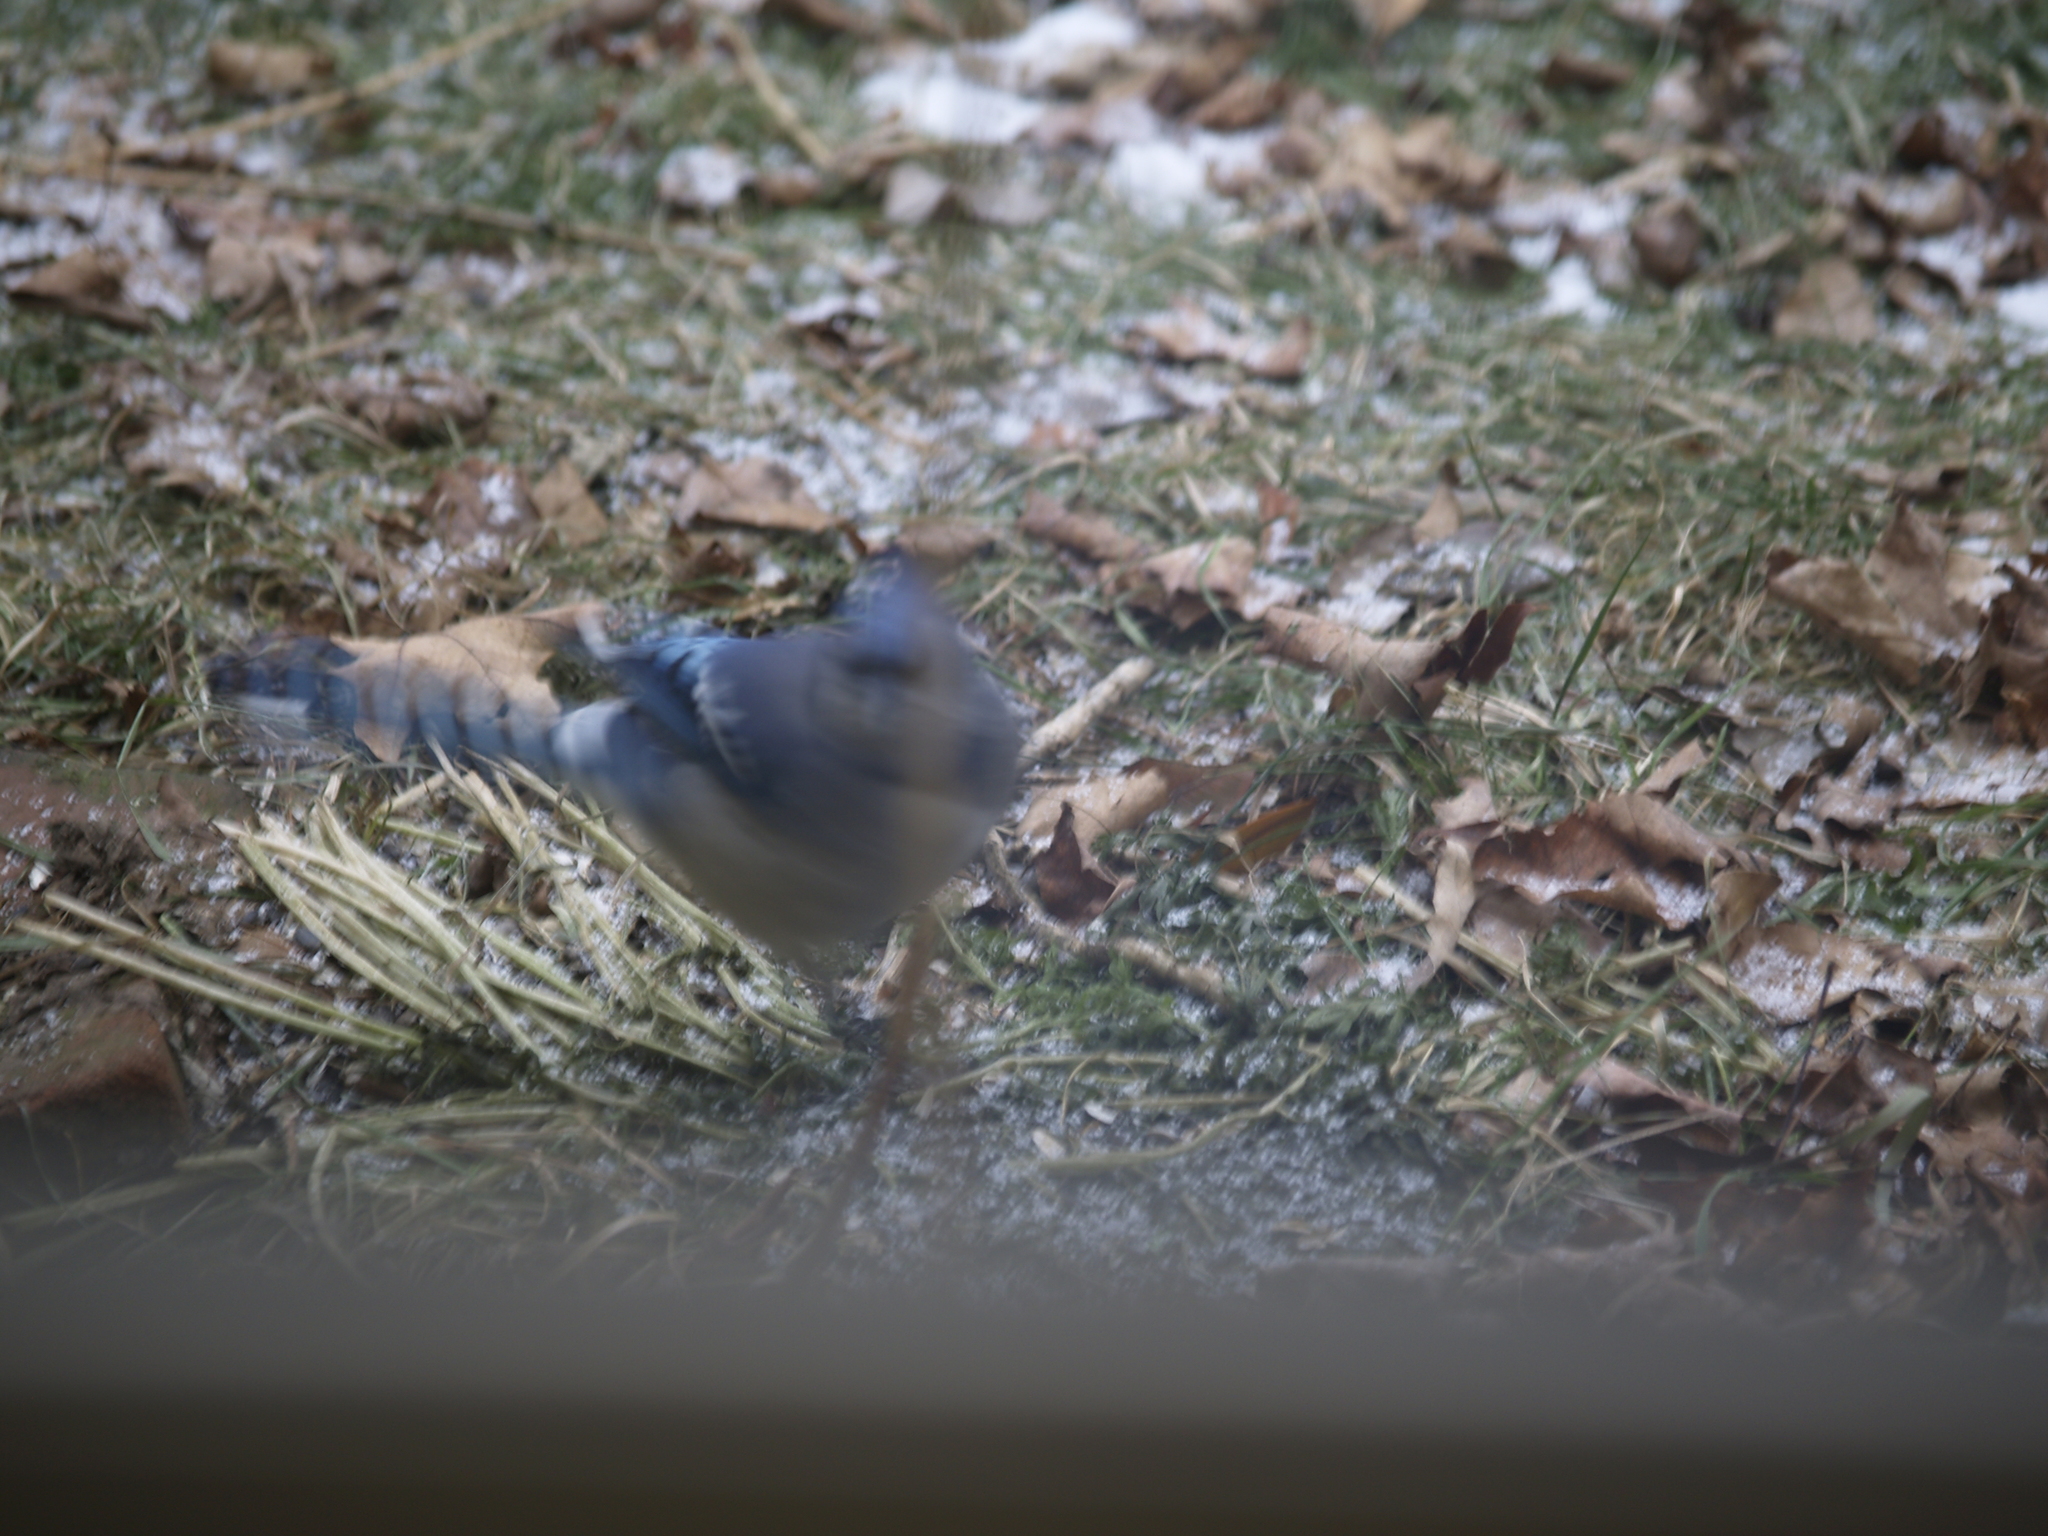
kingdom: Animalia
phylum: Chordata
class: Aves
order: Passeriformes
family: Corvidae
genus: Cyanocitta
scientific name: Cyanocitta cristata
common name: Blue jay
